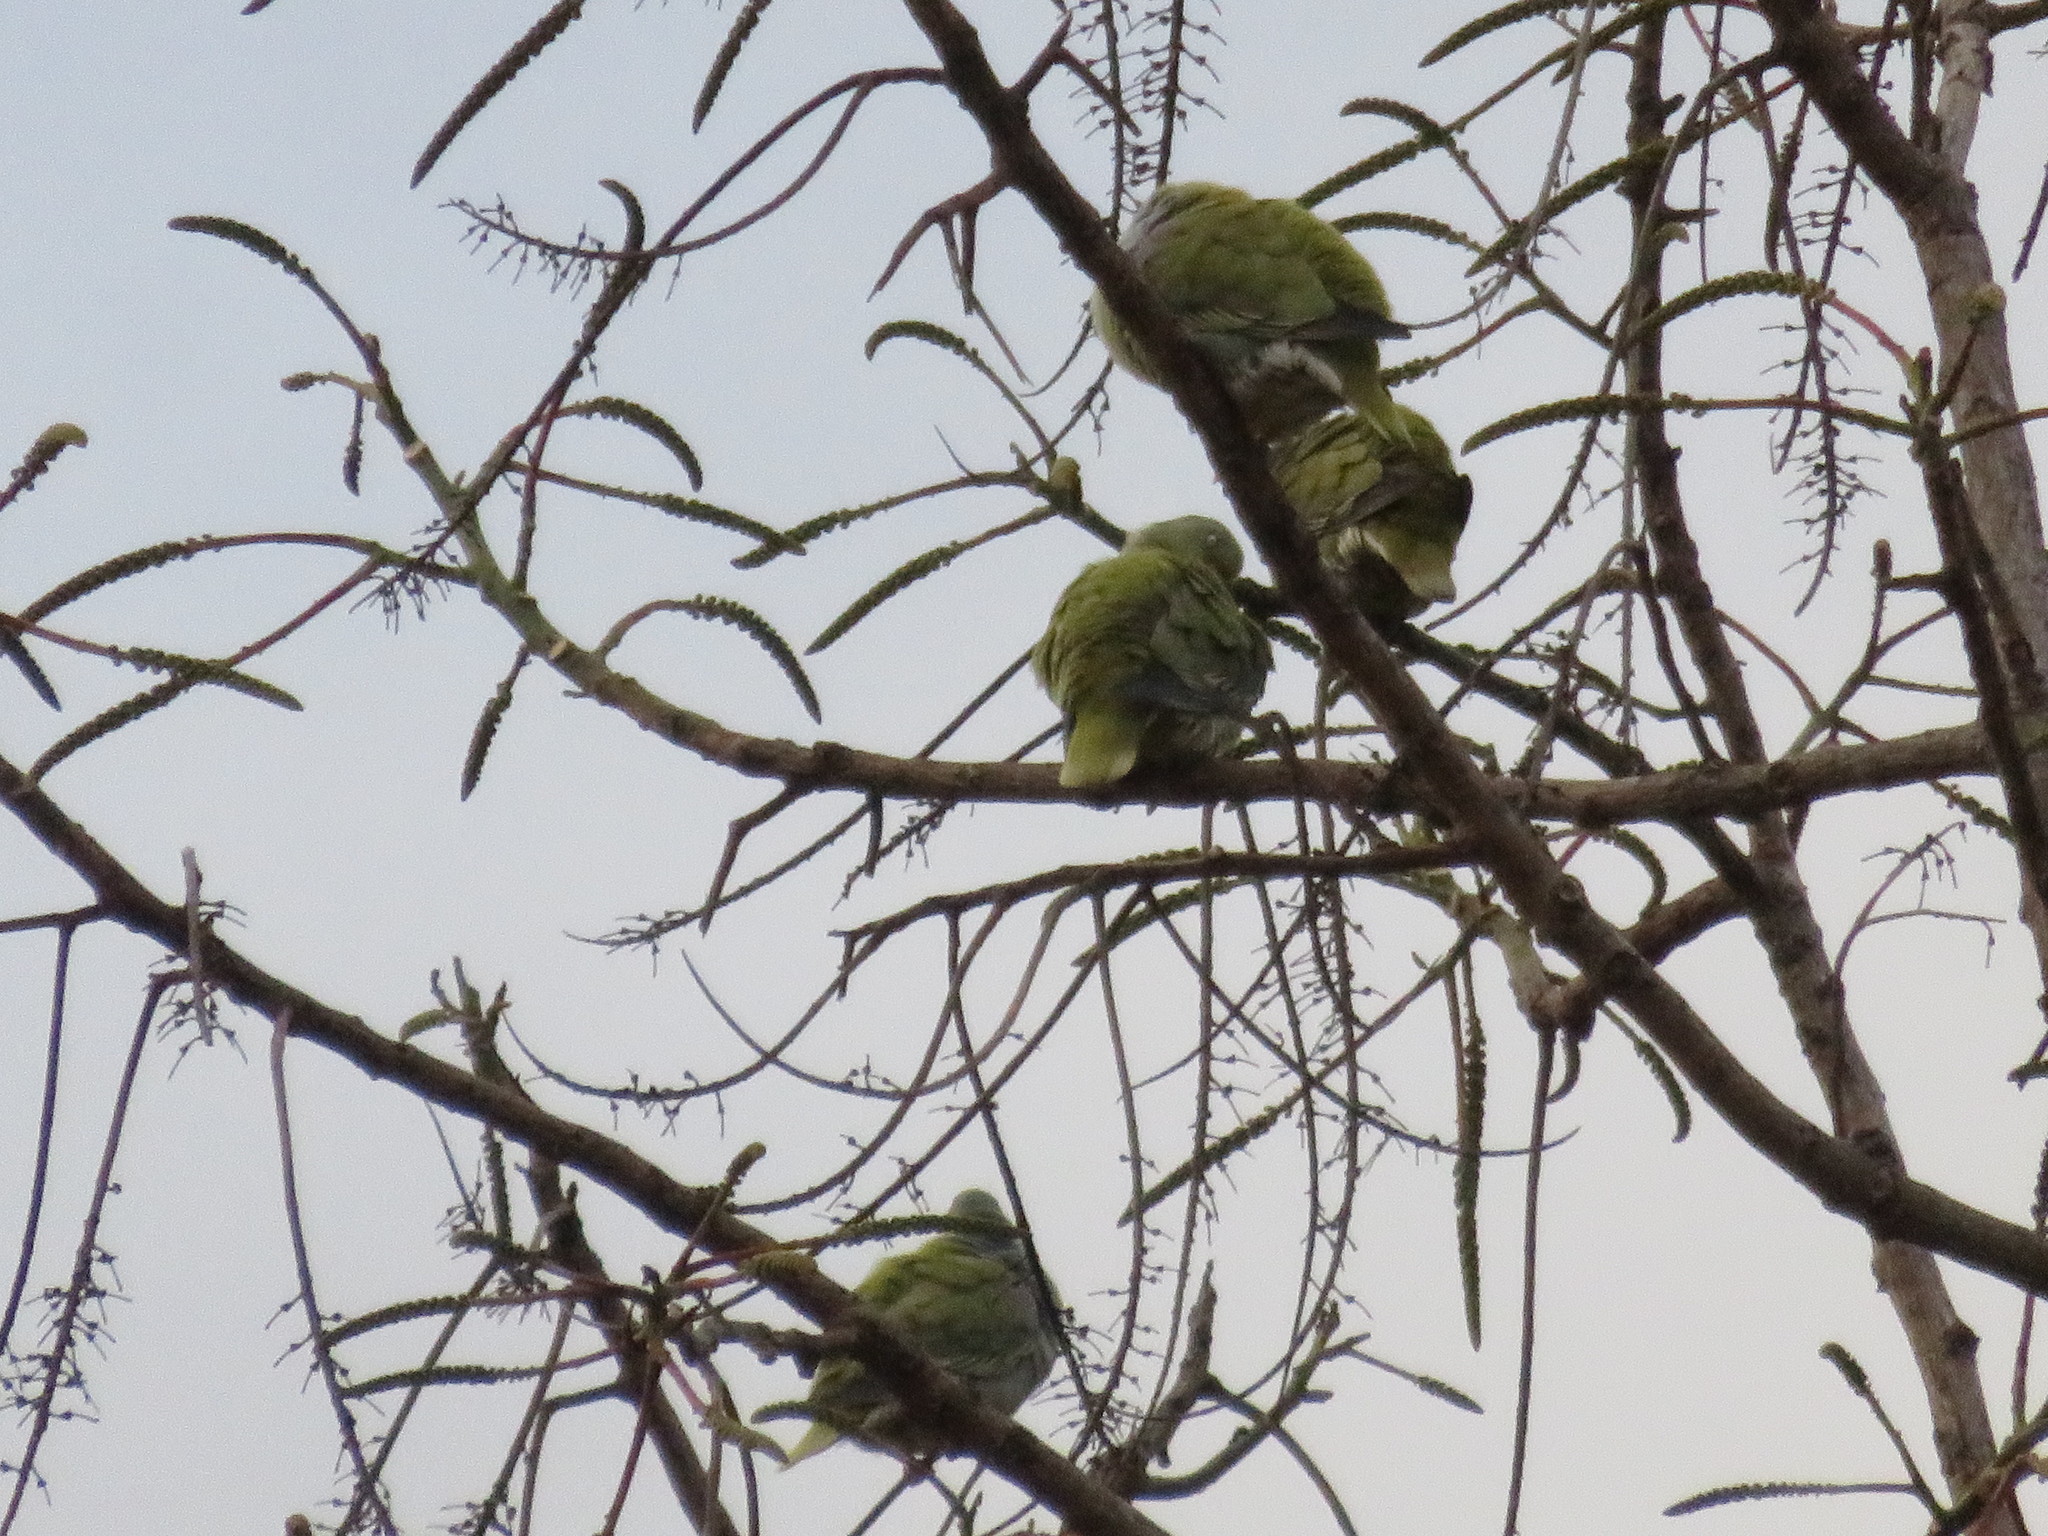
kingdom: Animalia
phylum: Chordata
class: Aves
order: Columbiformes
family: Columbidae
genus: Treron
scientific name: Treron calvus
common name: African green pigeon
